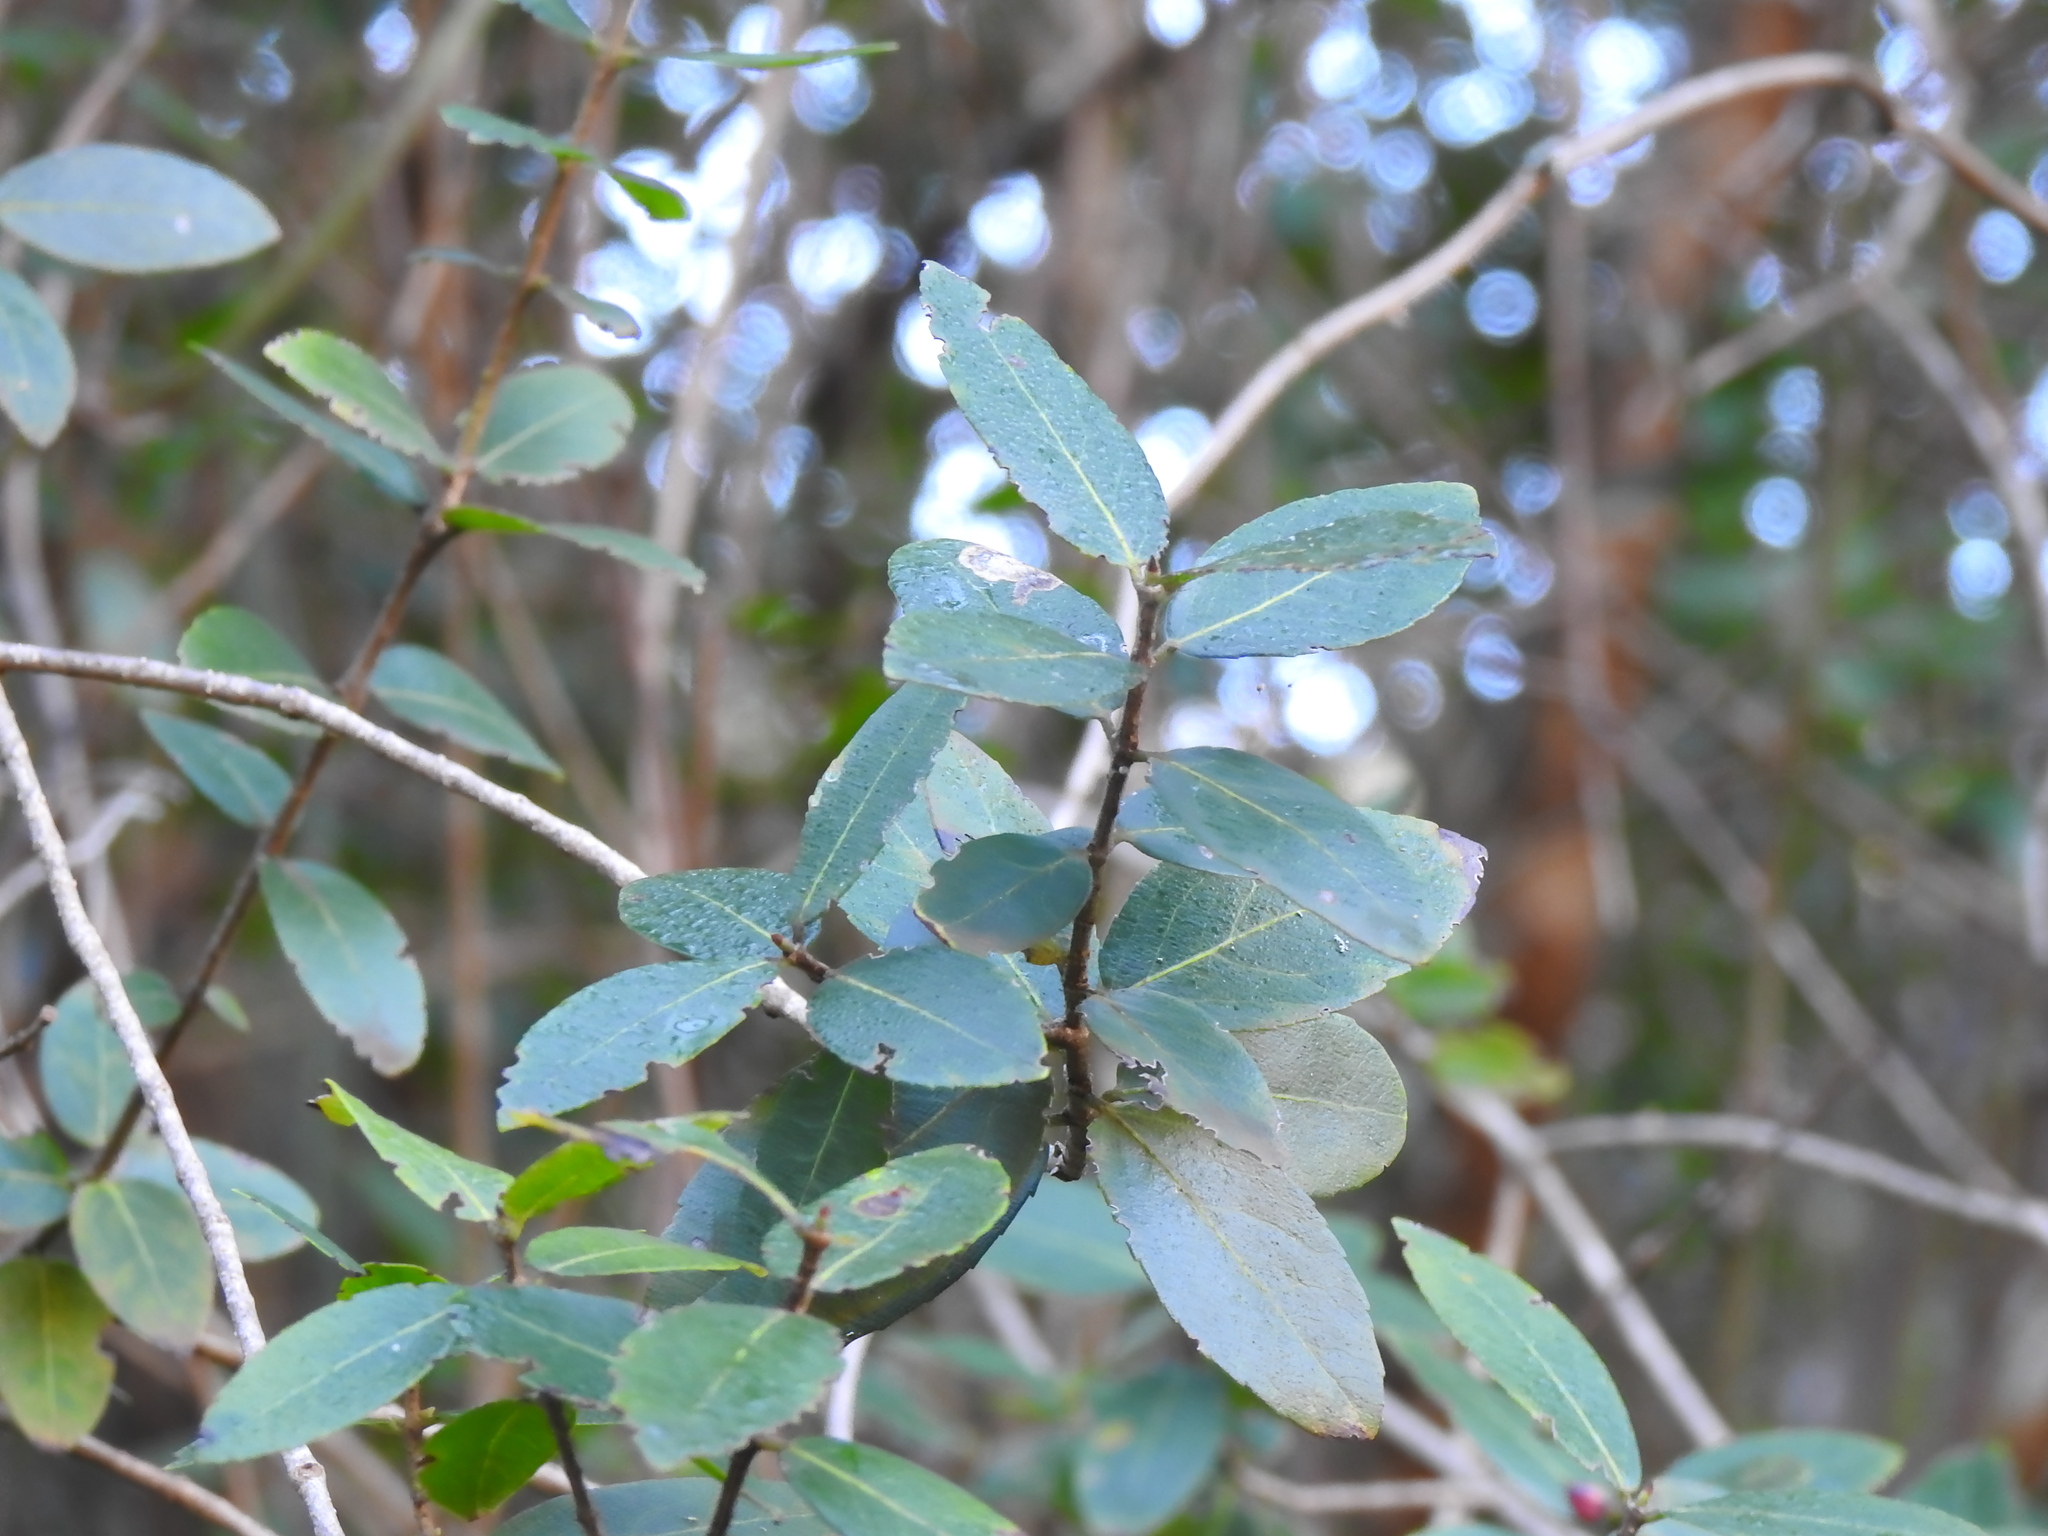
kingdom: Plantae
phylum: Tracheophyta
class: Magnoliopsida
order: Lamiales
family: Oleaceae
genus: Phillyrea
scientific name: Phillyrea latifolia
